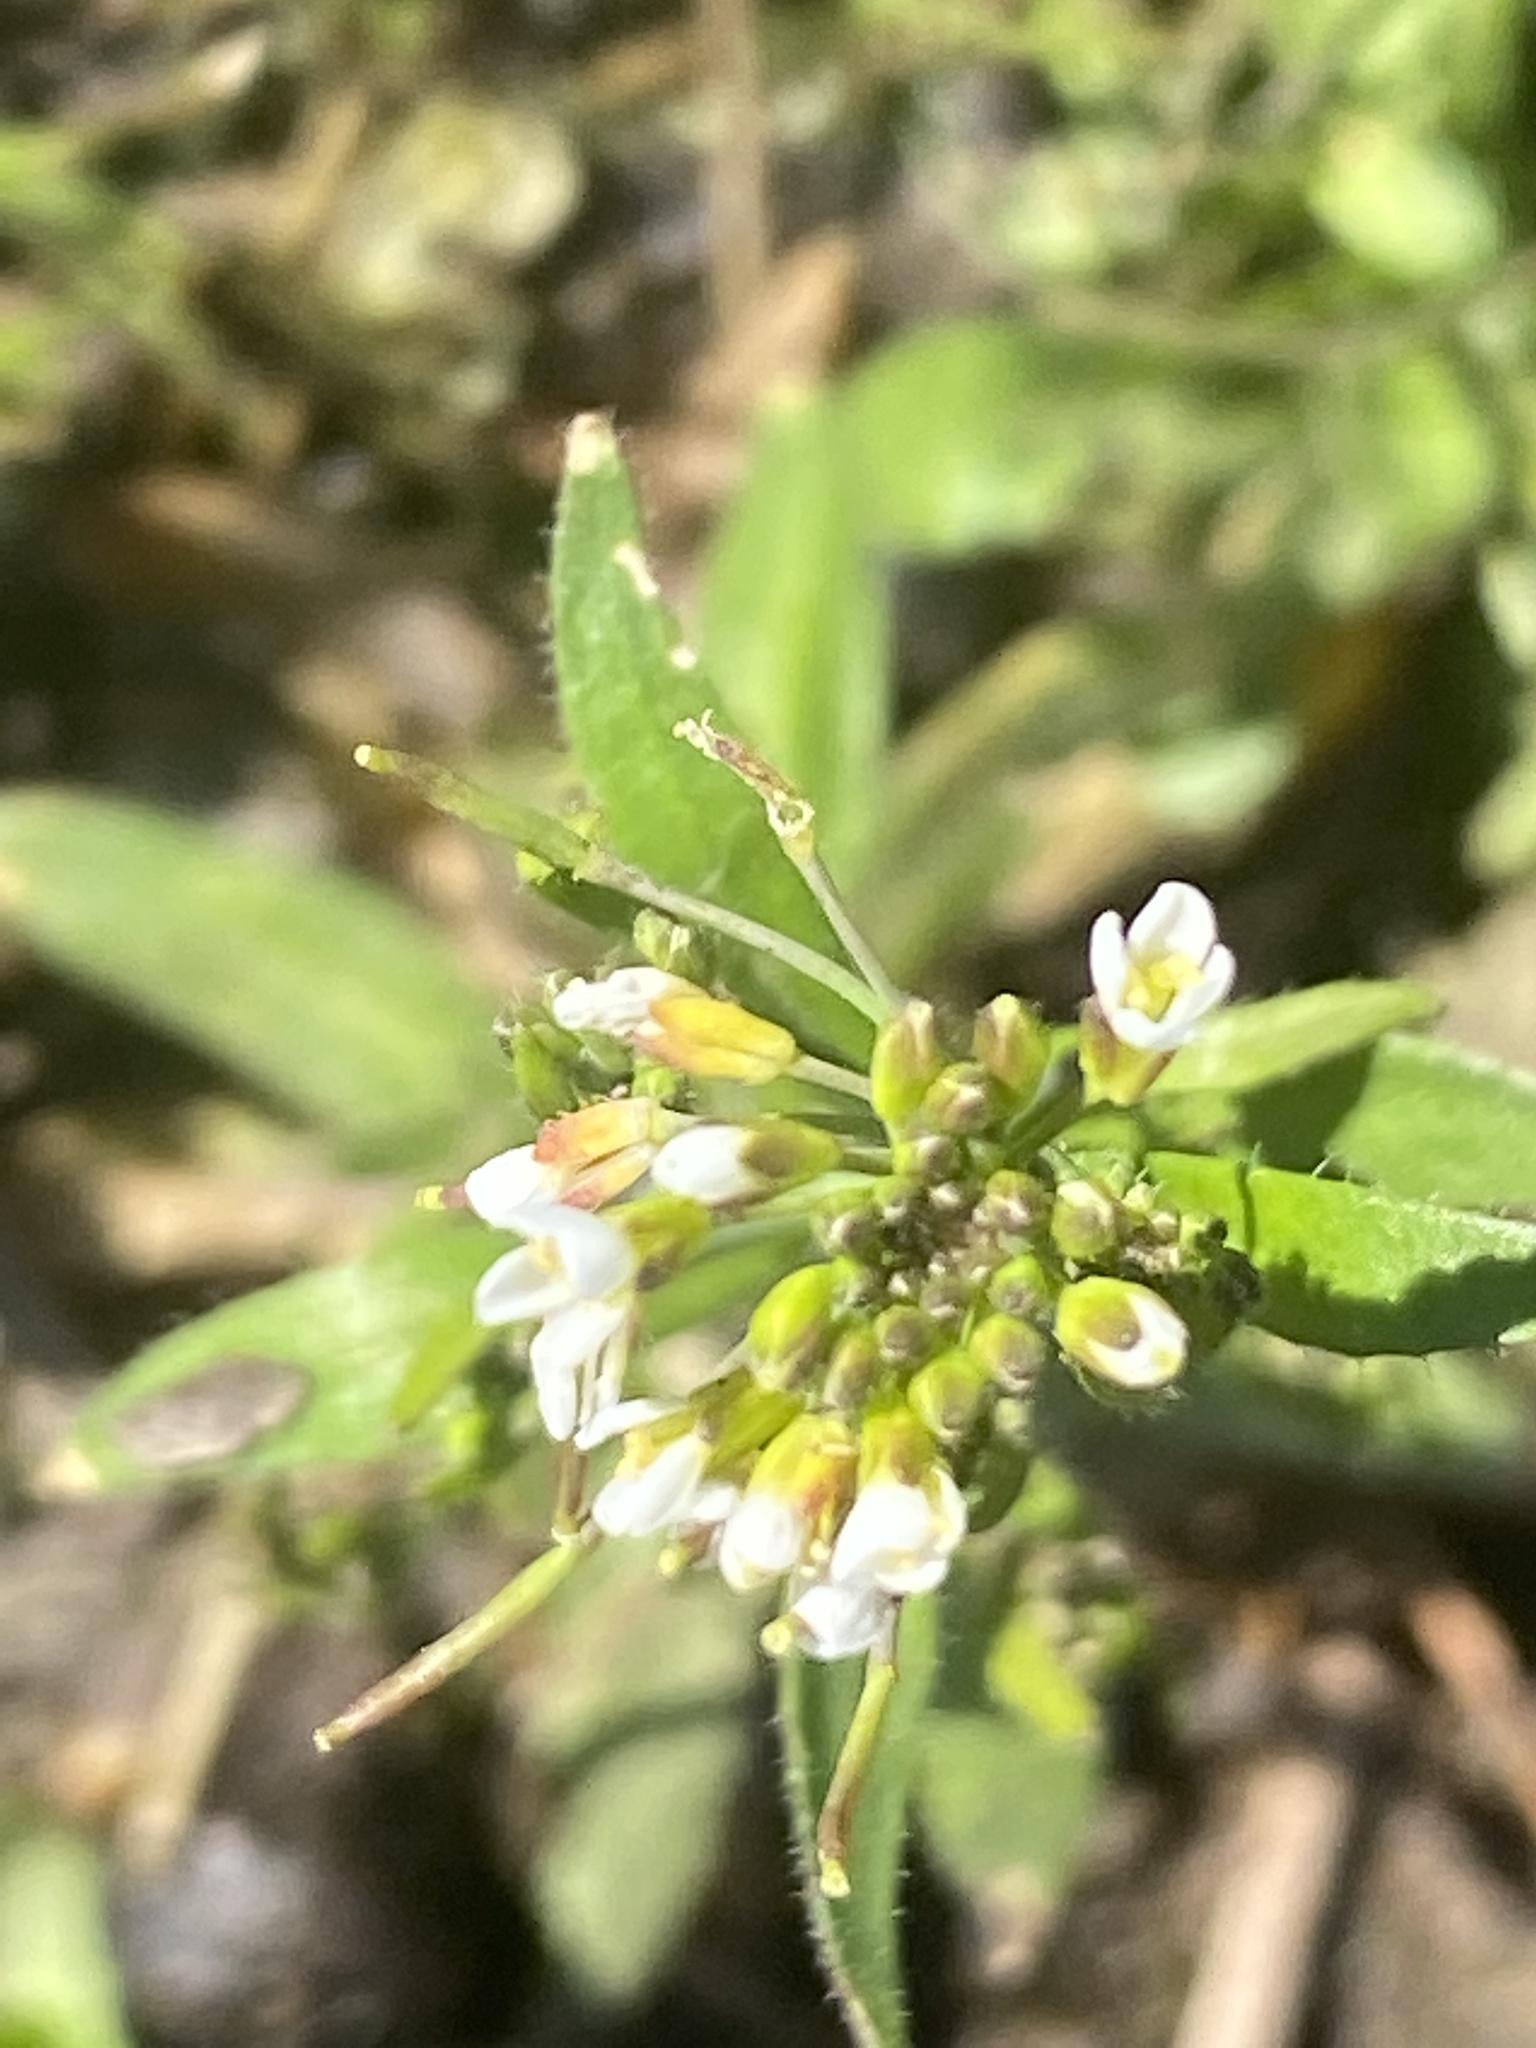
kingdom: Plantae
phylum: Tracheophyta
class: Magnoliopsida
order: Brassicales
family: Brassicaceae
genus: Arabidopsis
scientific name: Arabidopsis thaliana
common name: Thale cress
